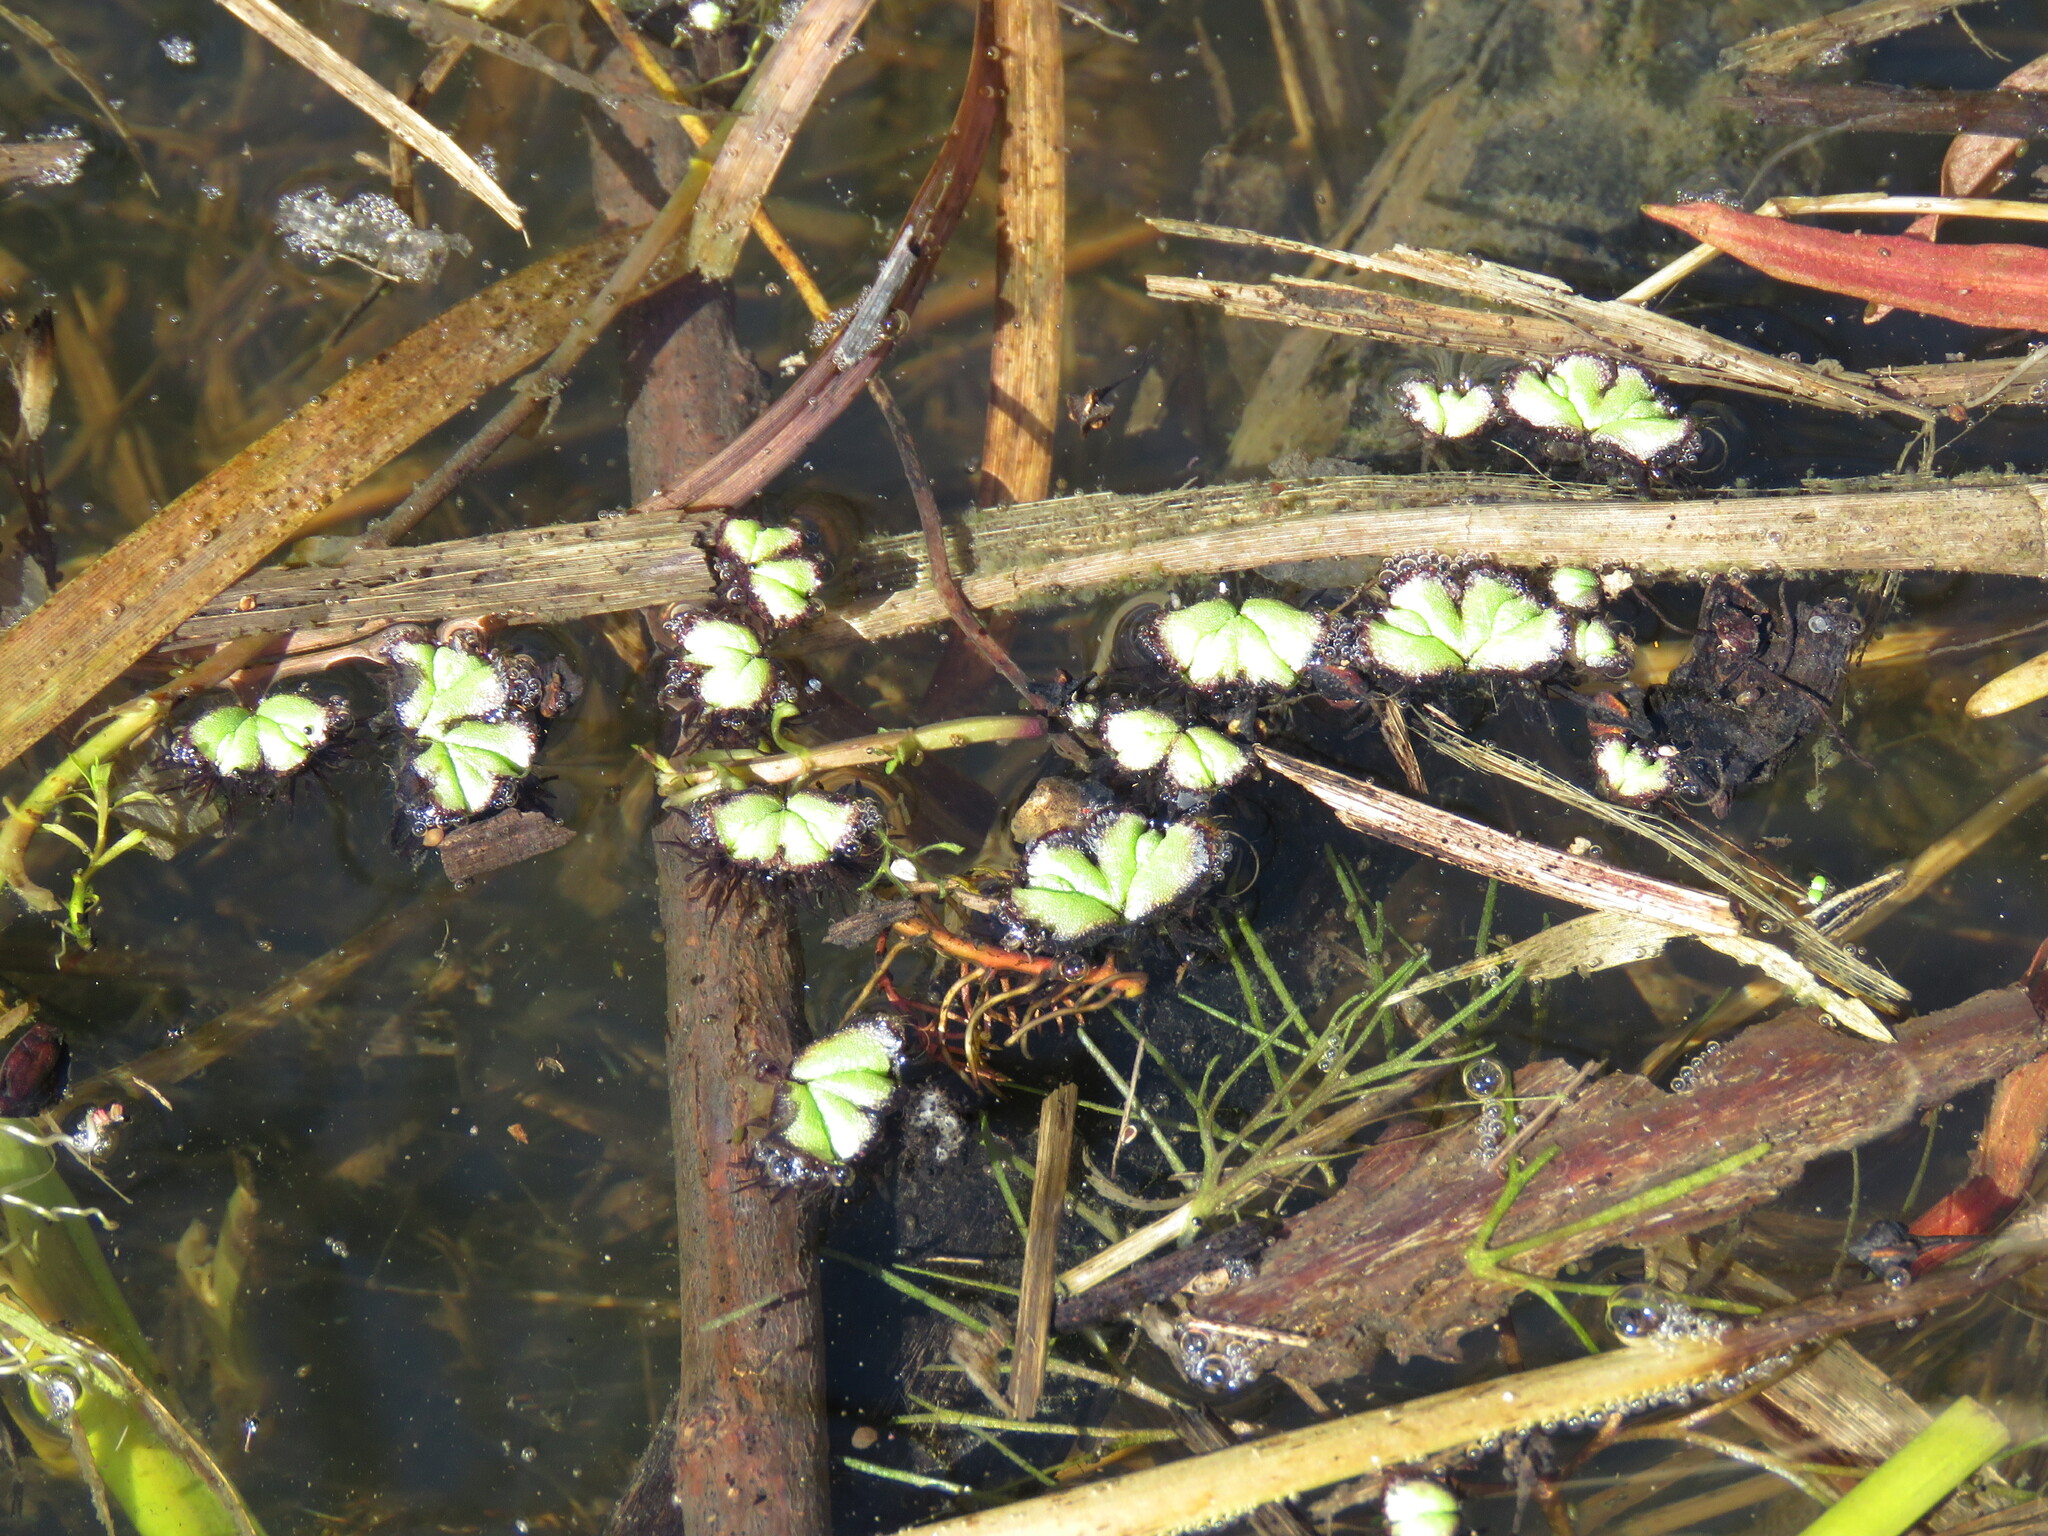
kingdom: Plantae
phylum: Marchantiophyta
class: Marchantiopsida
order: Marchantiales
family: Ricciaceae
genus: Ricciocarpos
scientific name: Ricciocarpos natans
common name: Purple-fringed liverwort
